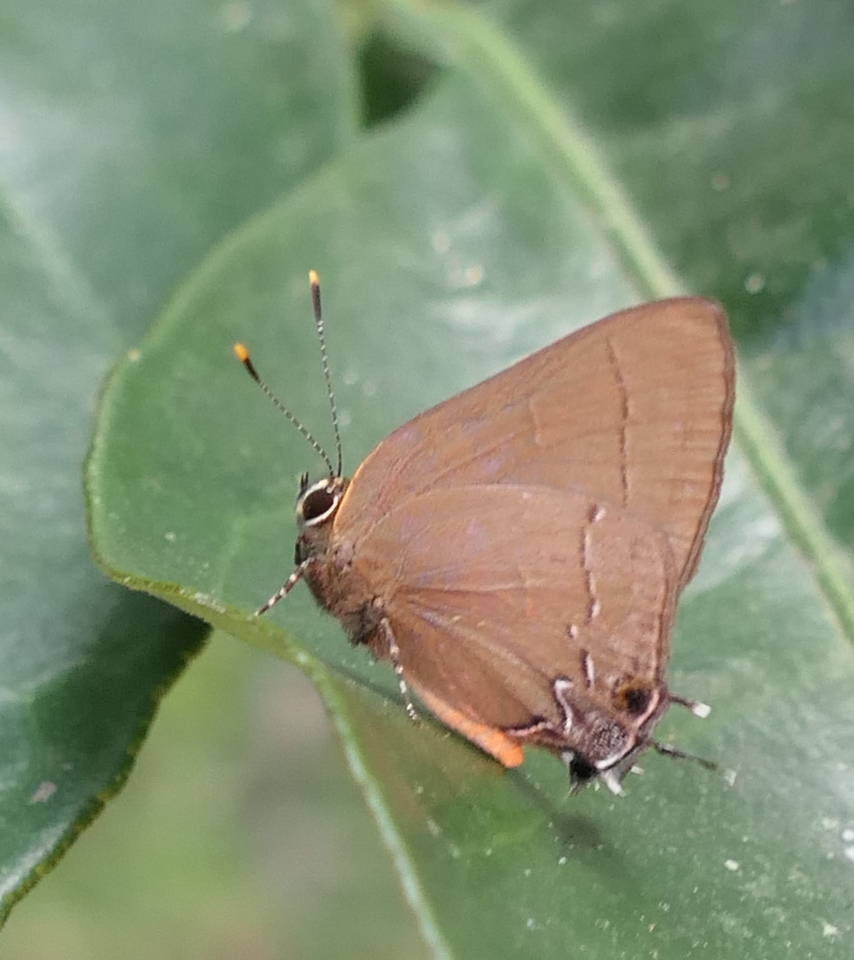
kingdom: Animalia
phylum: Arthropoda
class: Insecta
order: Lepidoptera
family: Lycaenidae
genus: Ziegleria
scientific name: Ziegleria hesperitis
